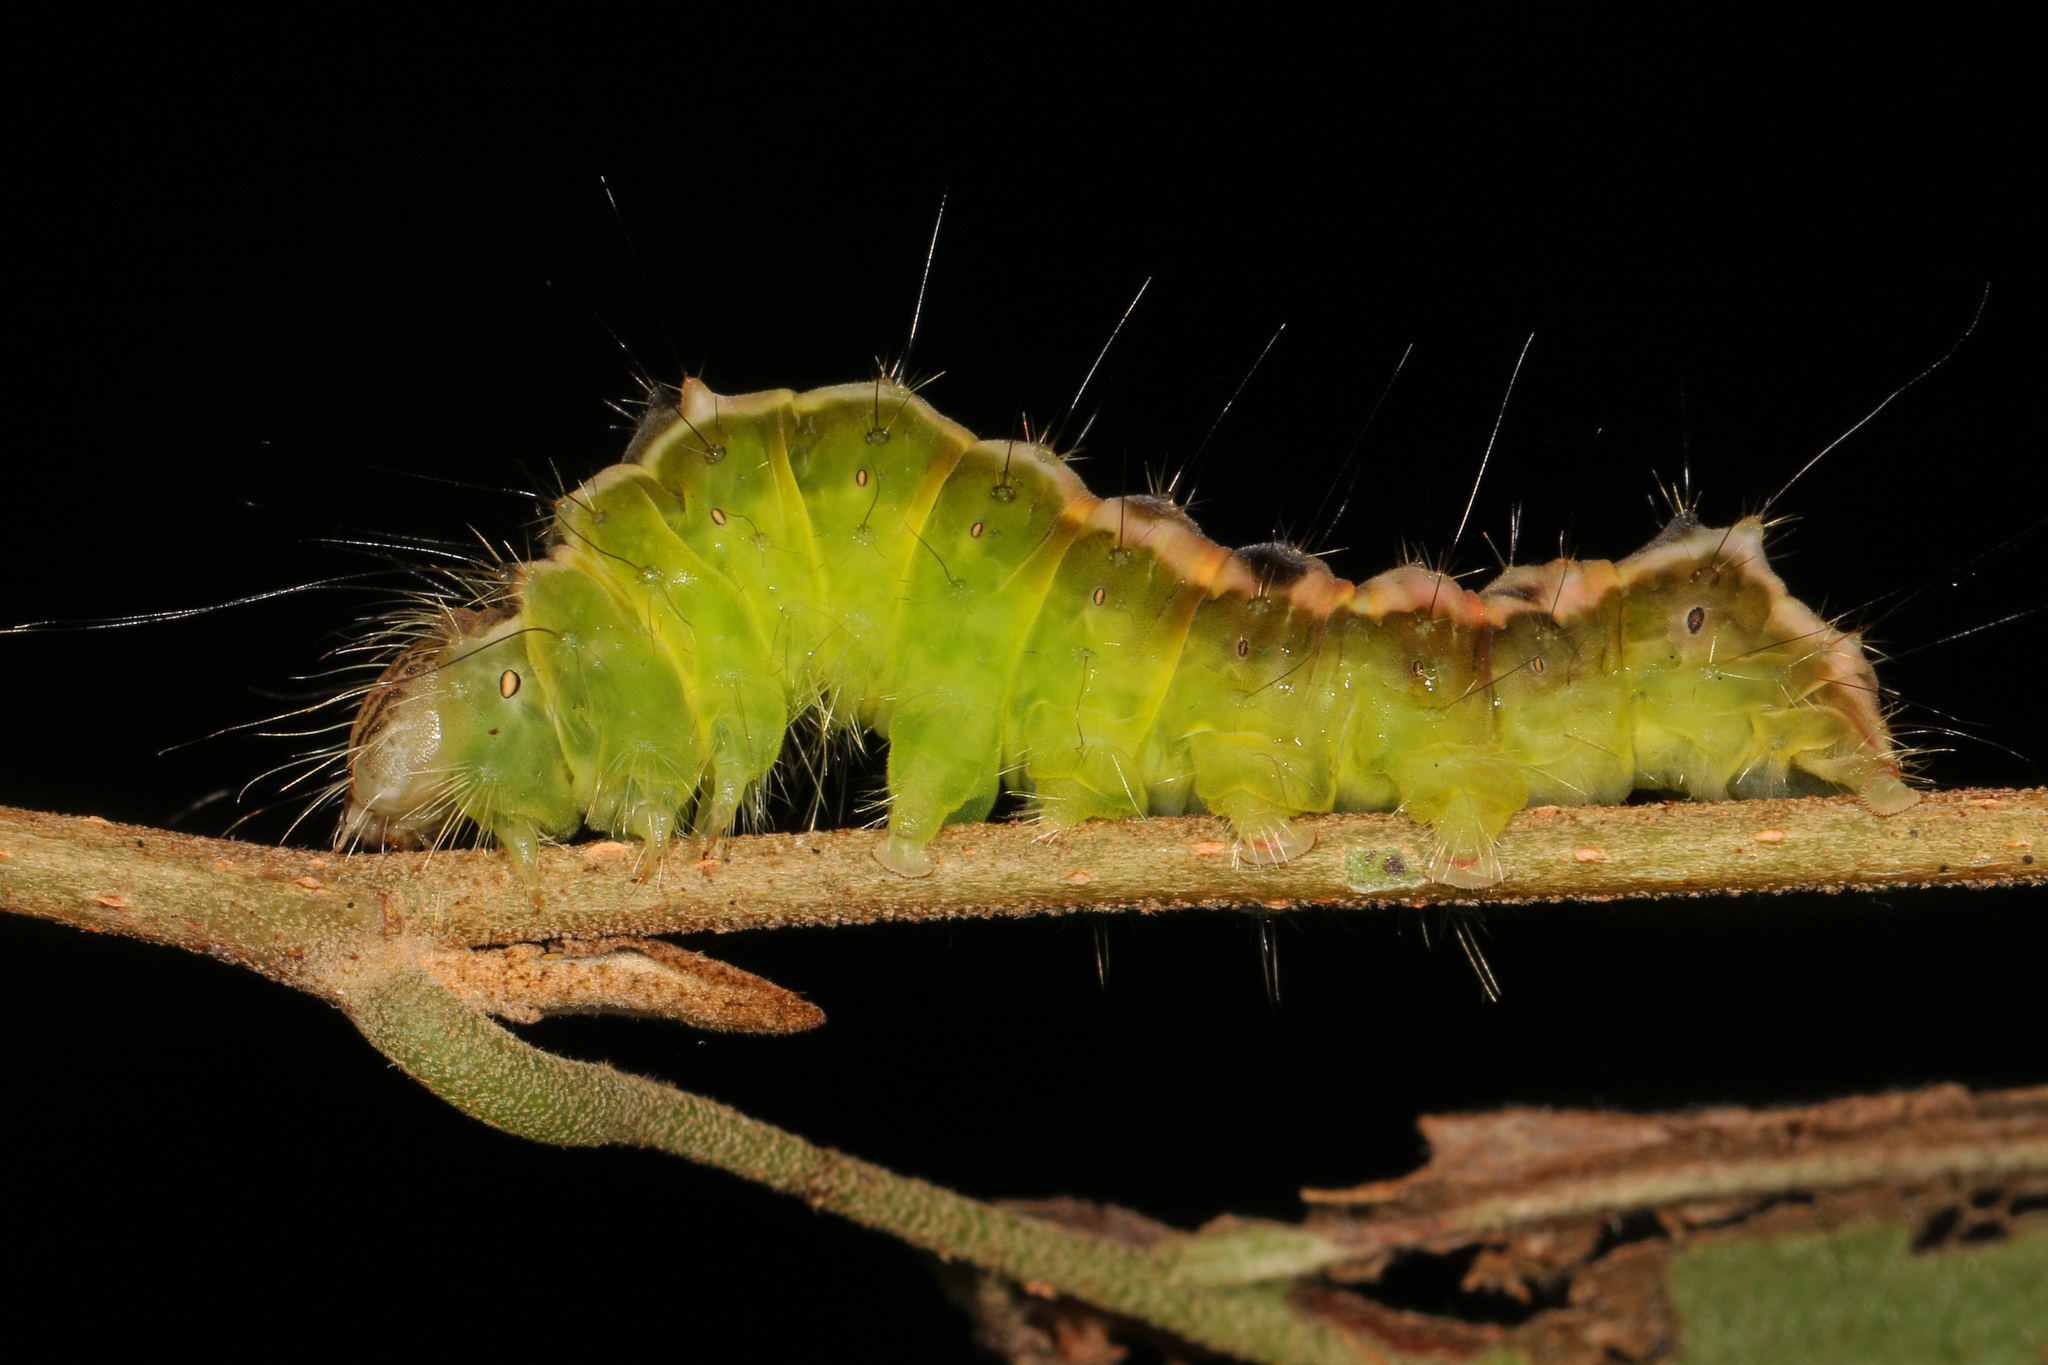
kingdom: Animalia
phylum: Arthropoda
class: Insecta
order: Lepidoptera
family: Noctuidae
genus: Acronicta
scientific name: Acronicta hamamelis
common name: Witch hazel dagger
